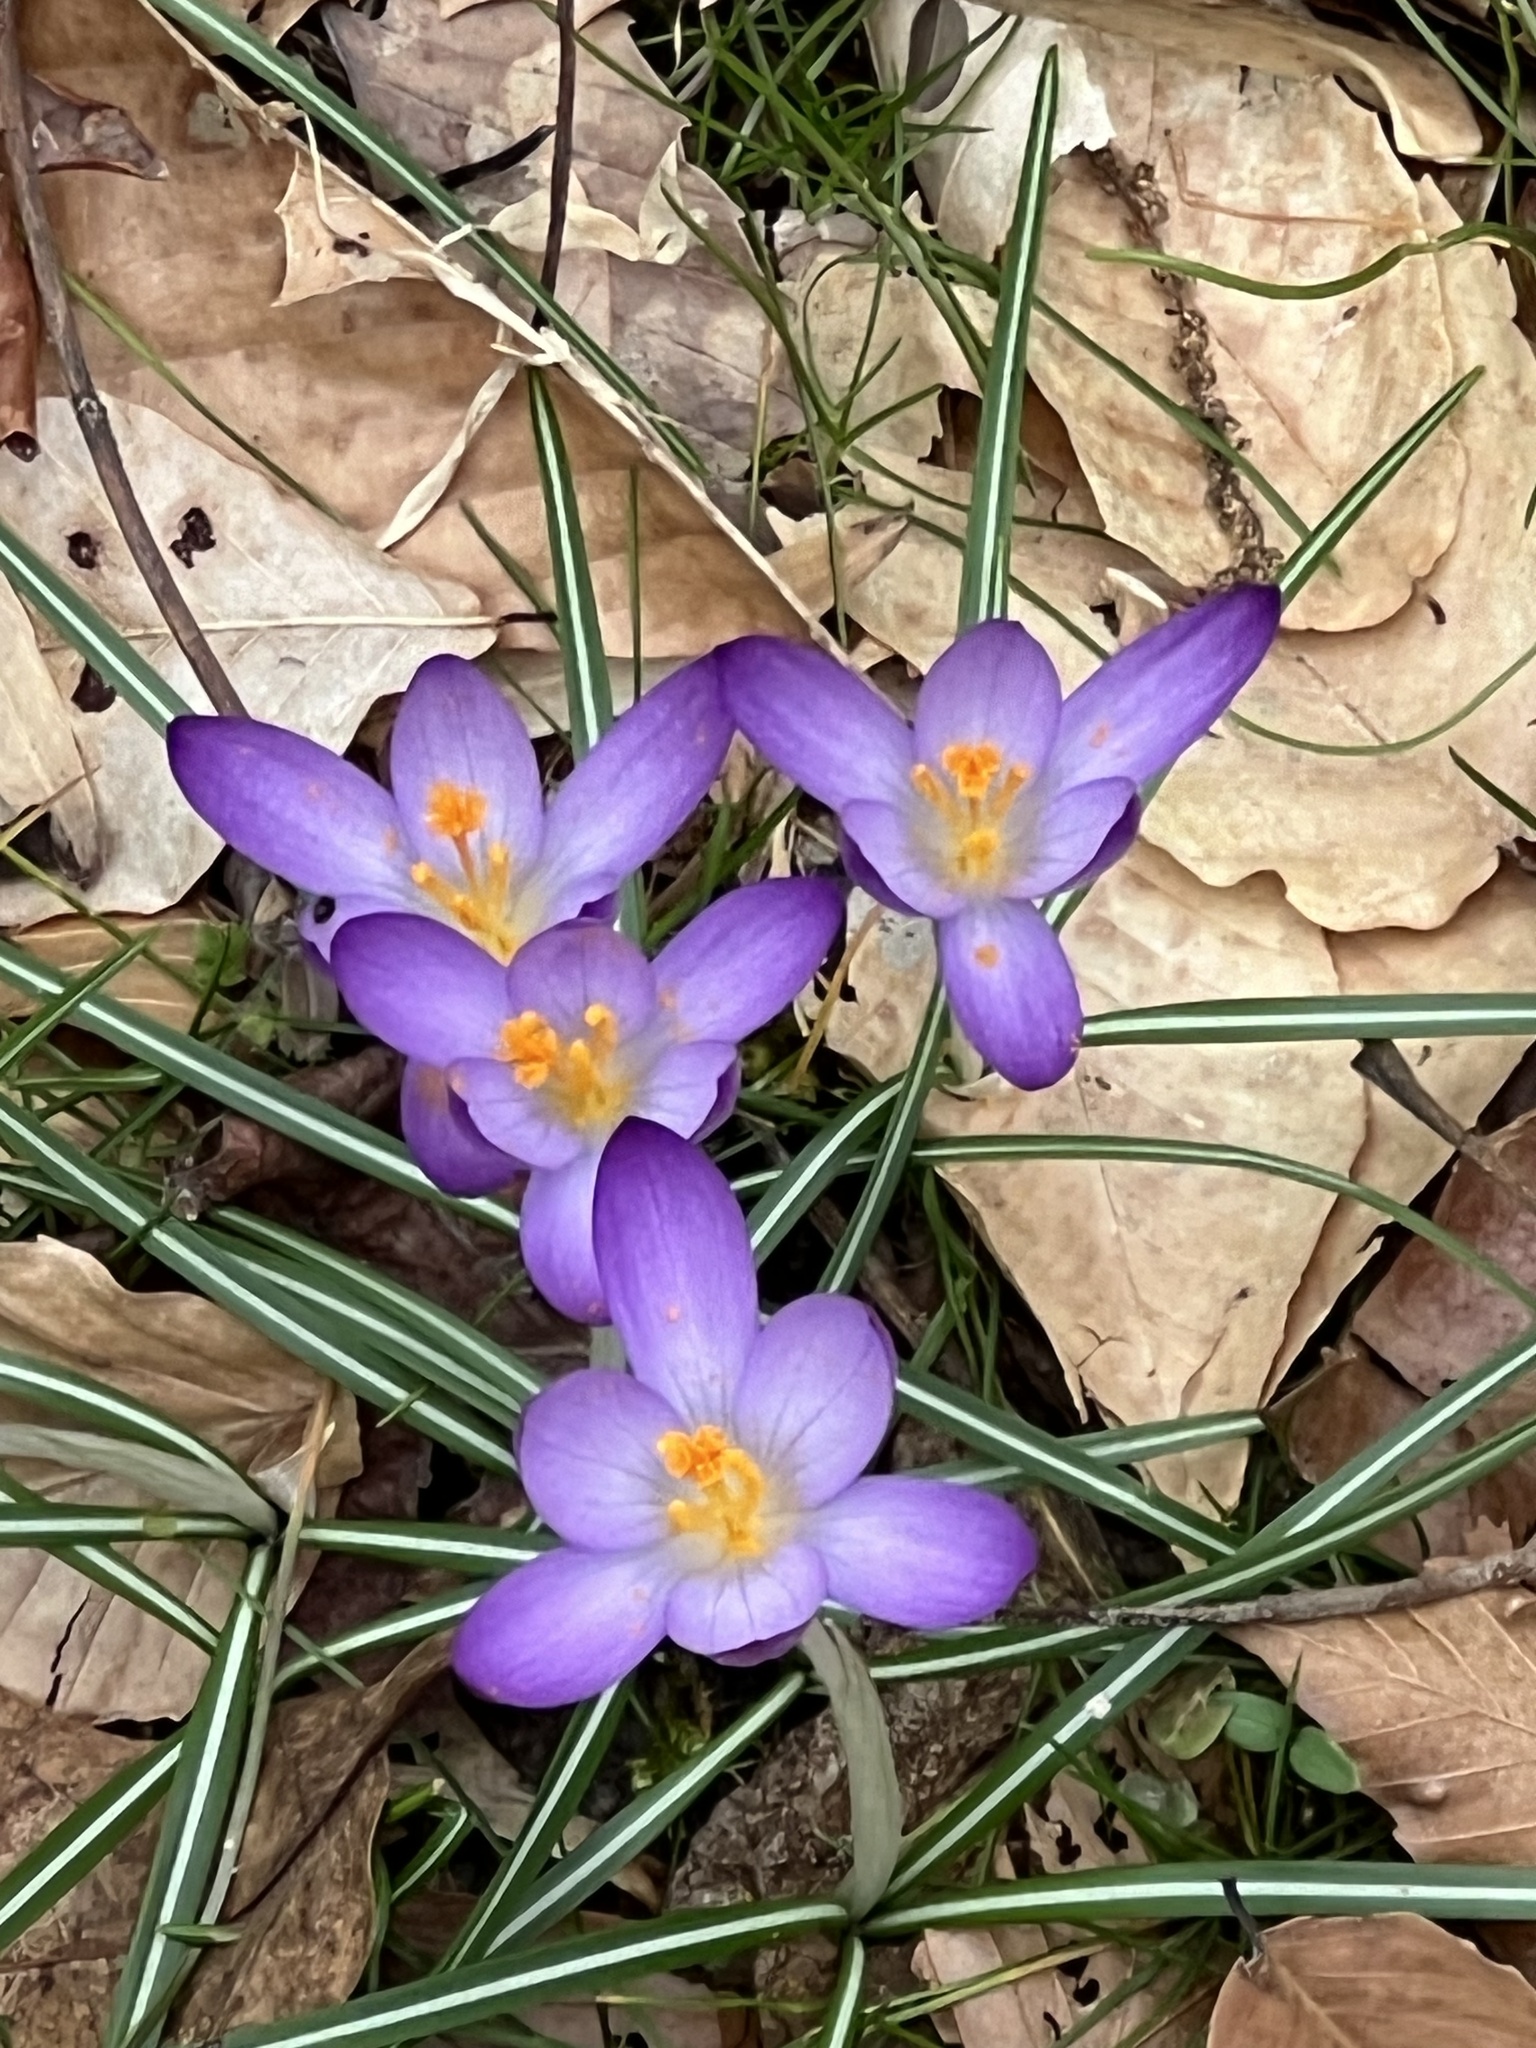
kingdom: Plantae
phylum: Tracheophyta
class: Liliopsida
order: Asparagales
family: Iridaceae
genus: Crocus
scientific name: Crocus tommasinianus
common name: Early crocus
